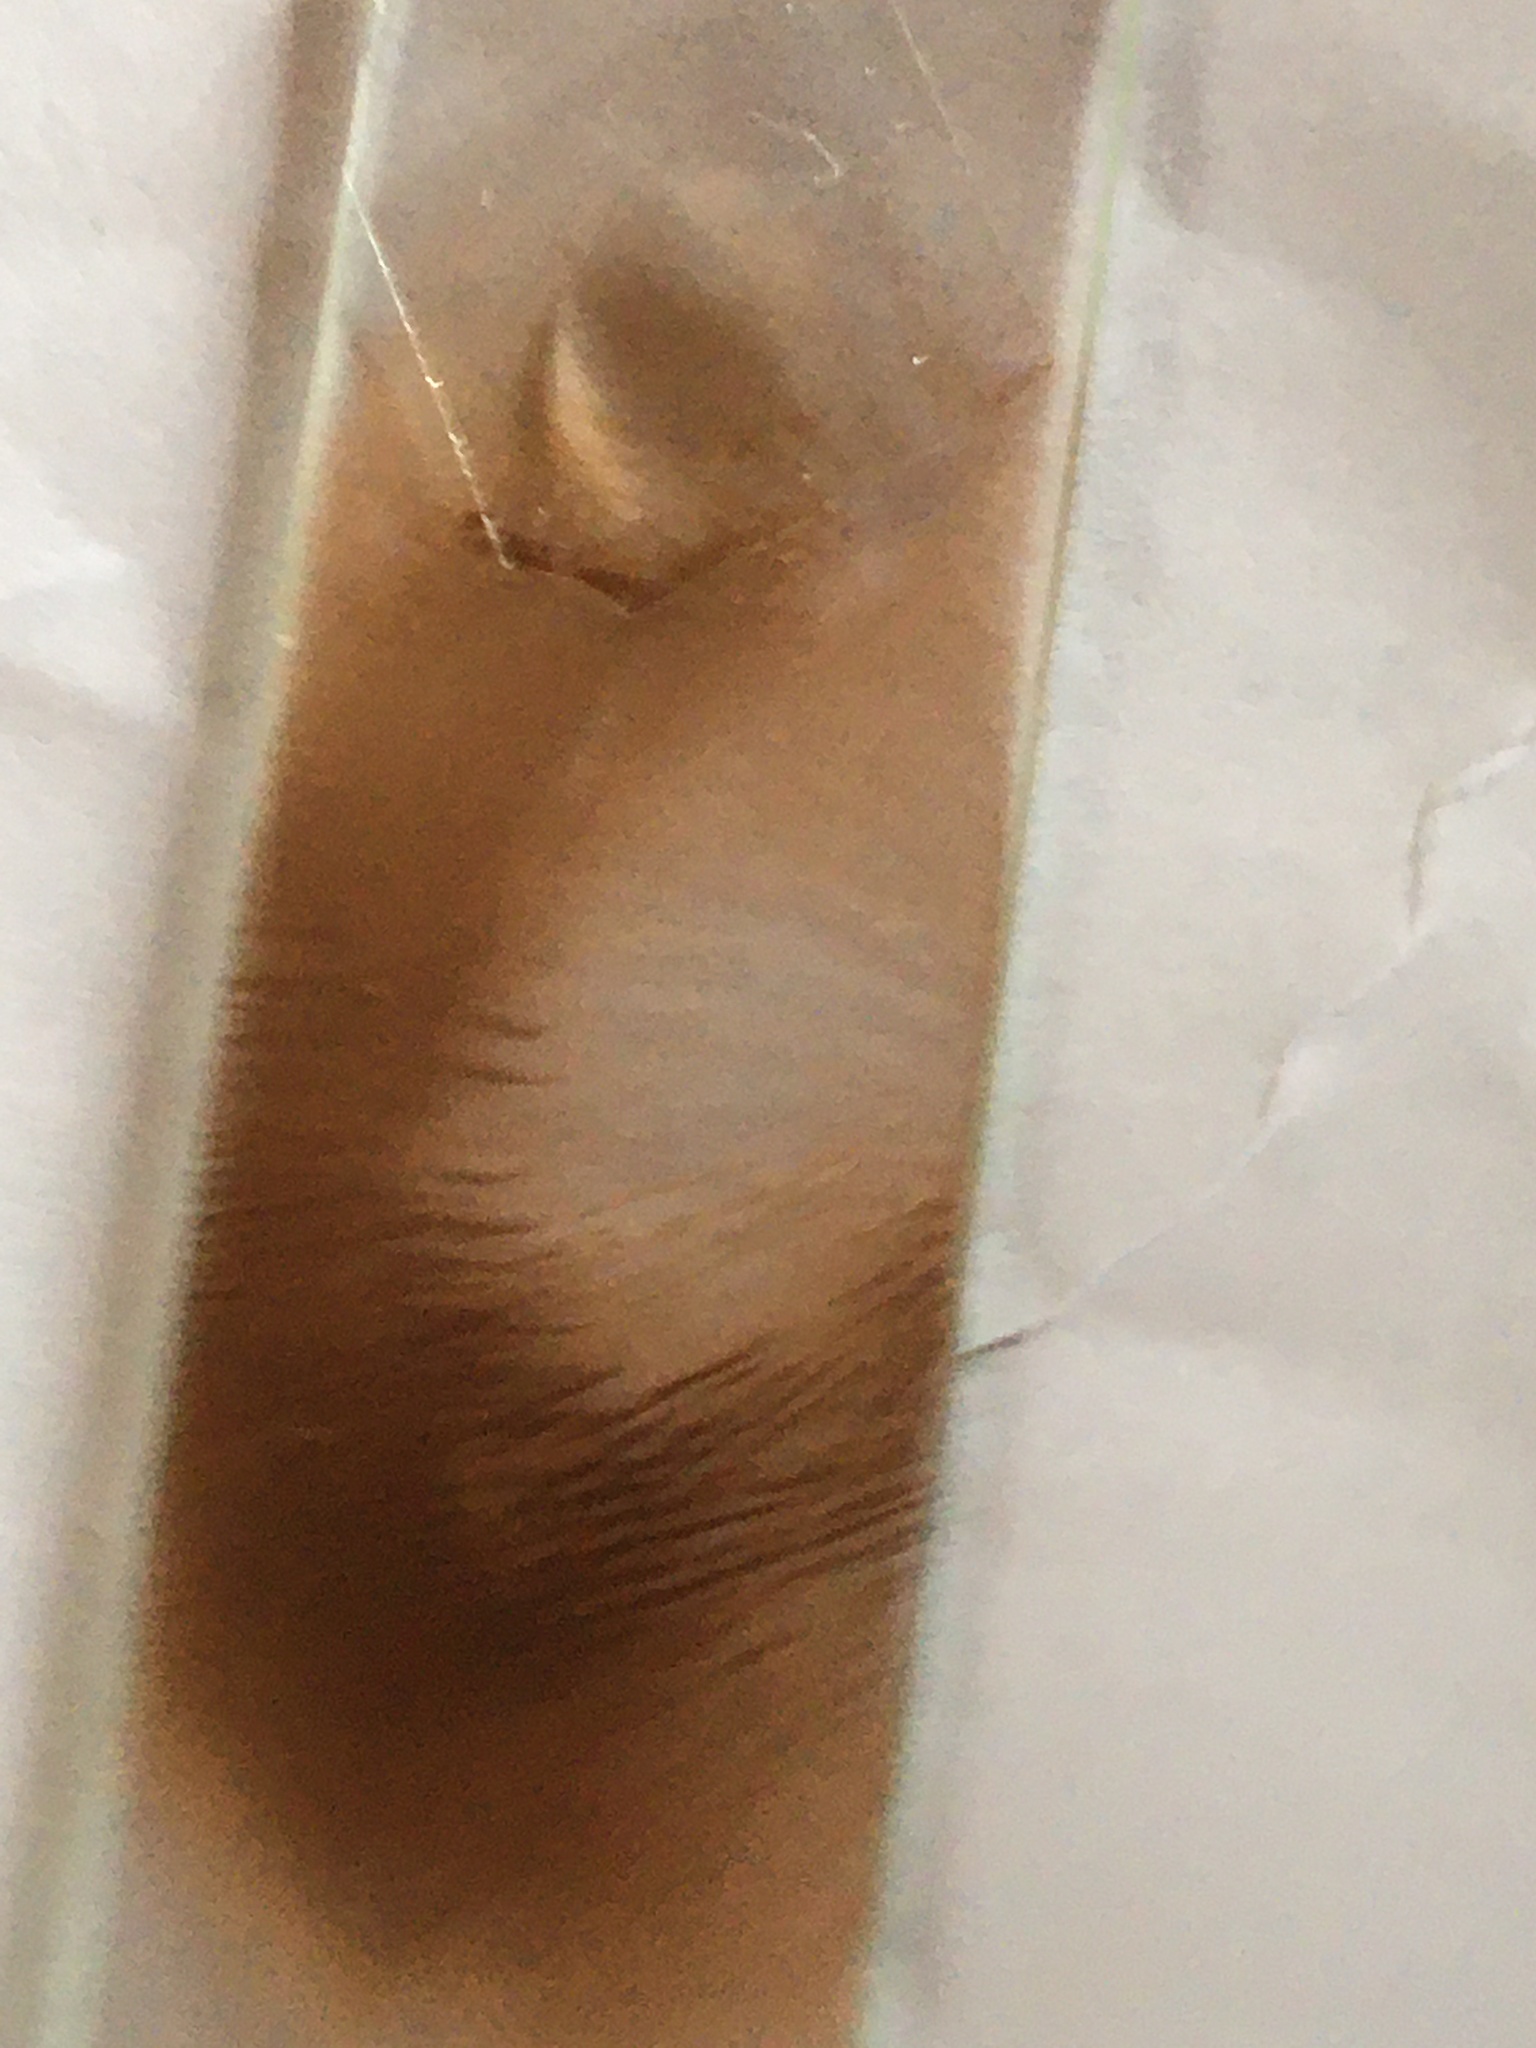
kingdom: Fungi
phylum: Basidiomycota
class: Agaricomycetes
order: Agaricales
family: Strophariaceae
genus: Agrocybe
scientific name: Agrocybe putaminum
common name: Mulch fieldcap
